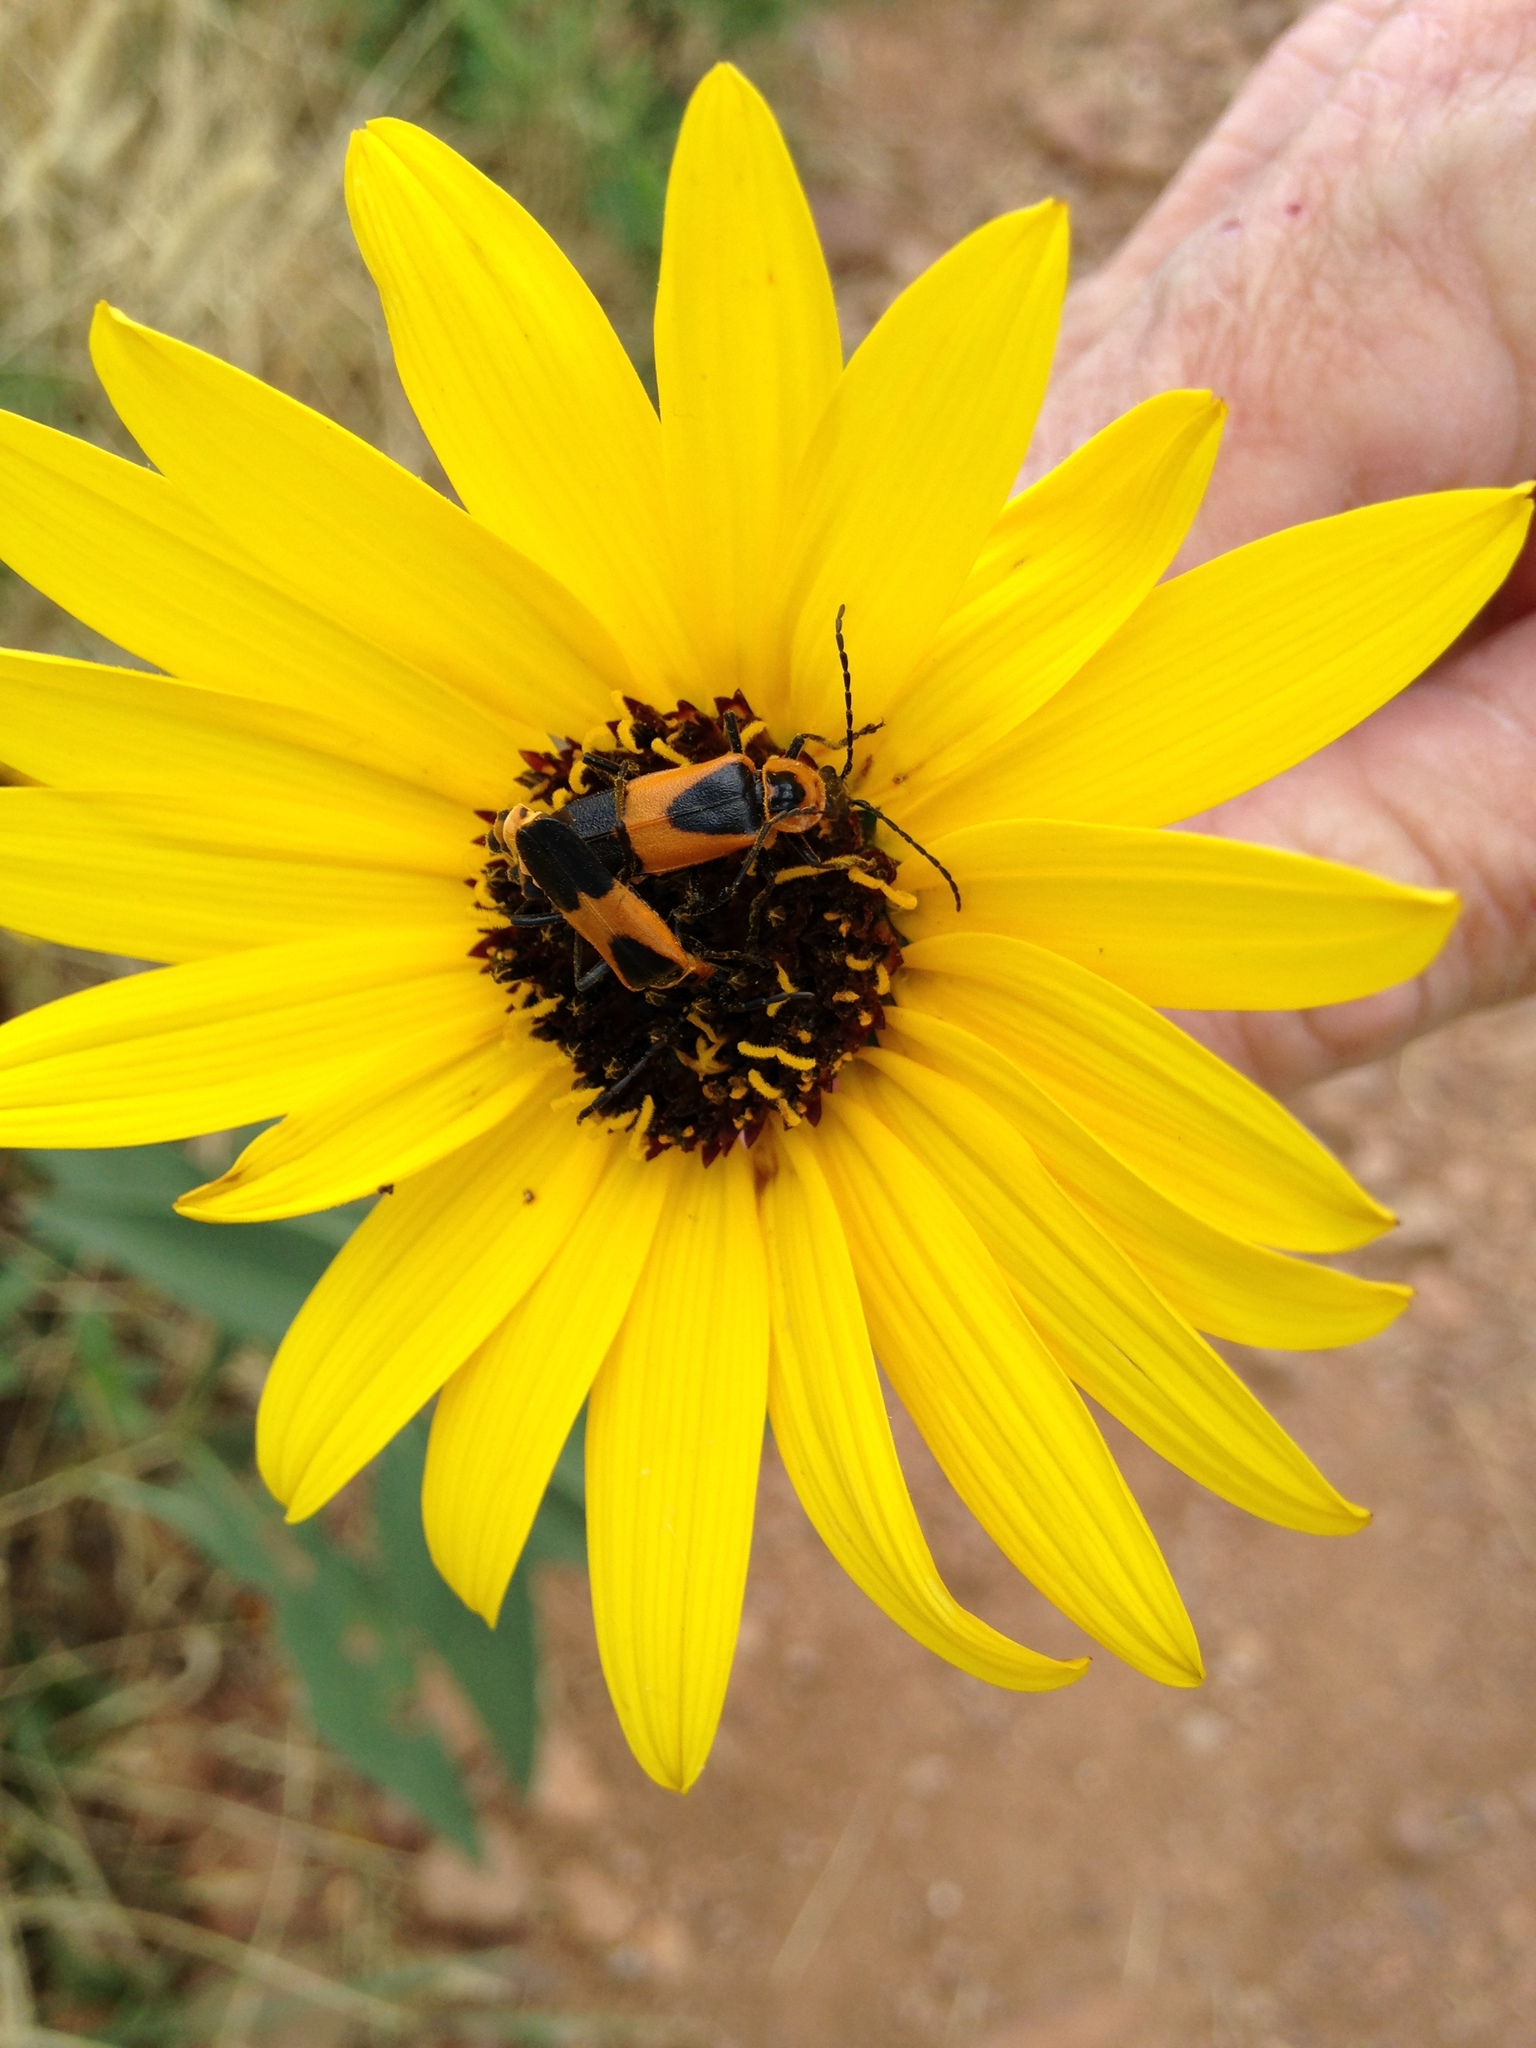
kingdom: Animalia
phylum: Arthropoda
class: Insecta
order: Coleoptera
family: Cantharidae
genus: Chauliognathus
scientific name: Chauliognathus basalis
